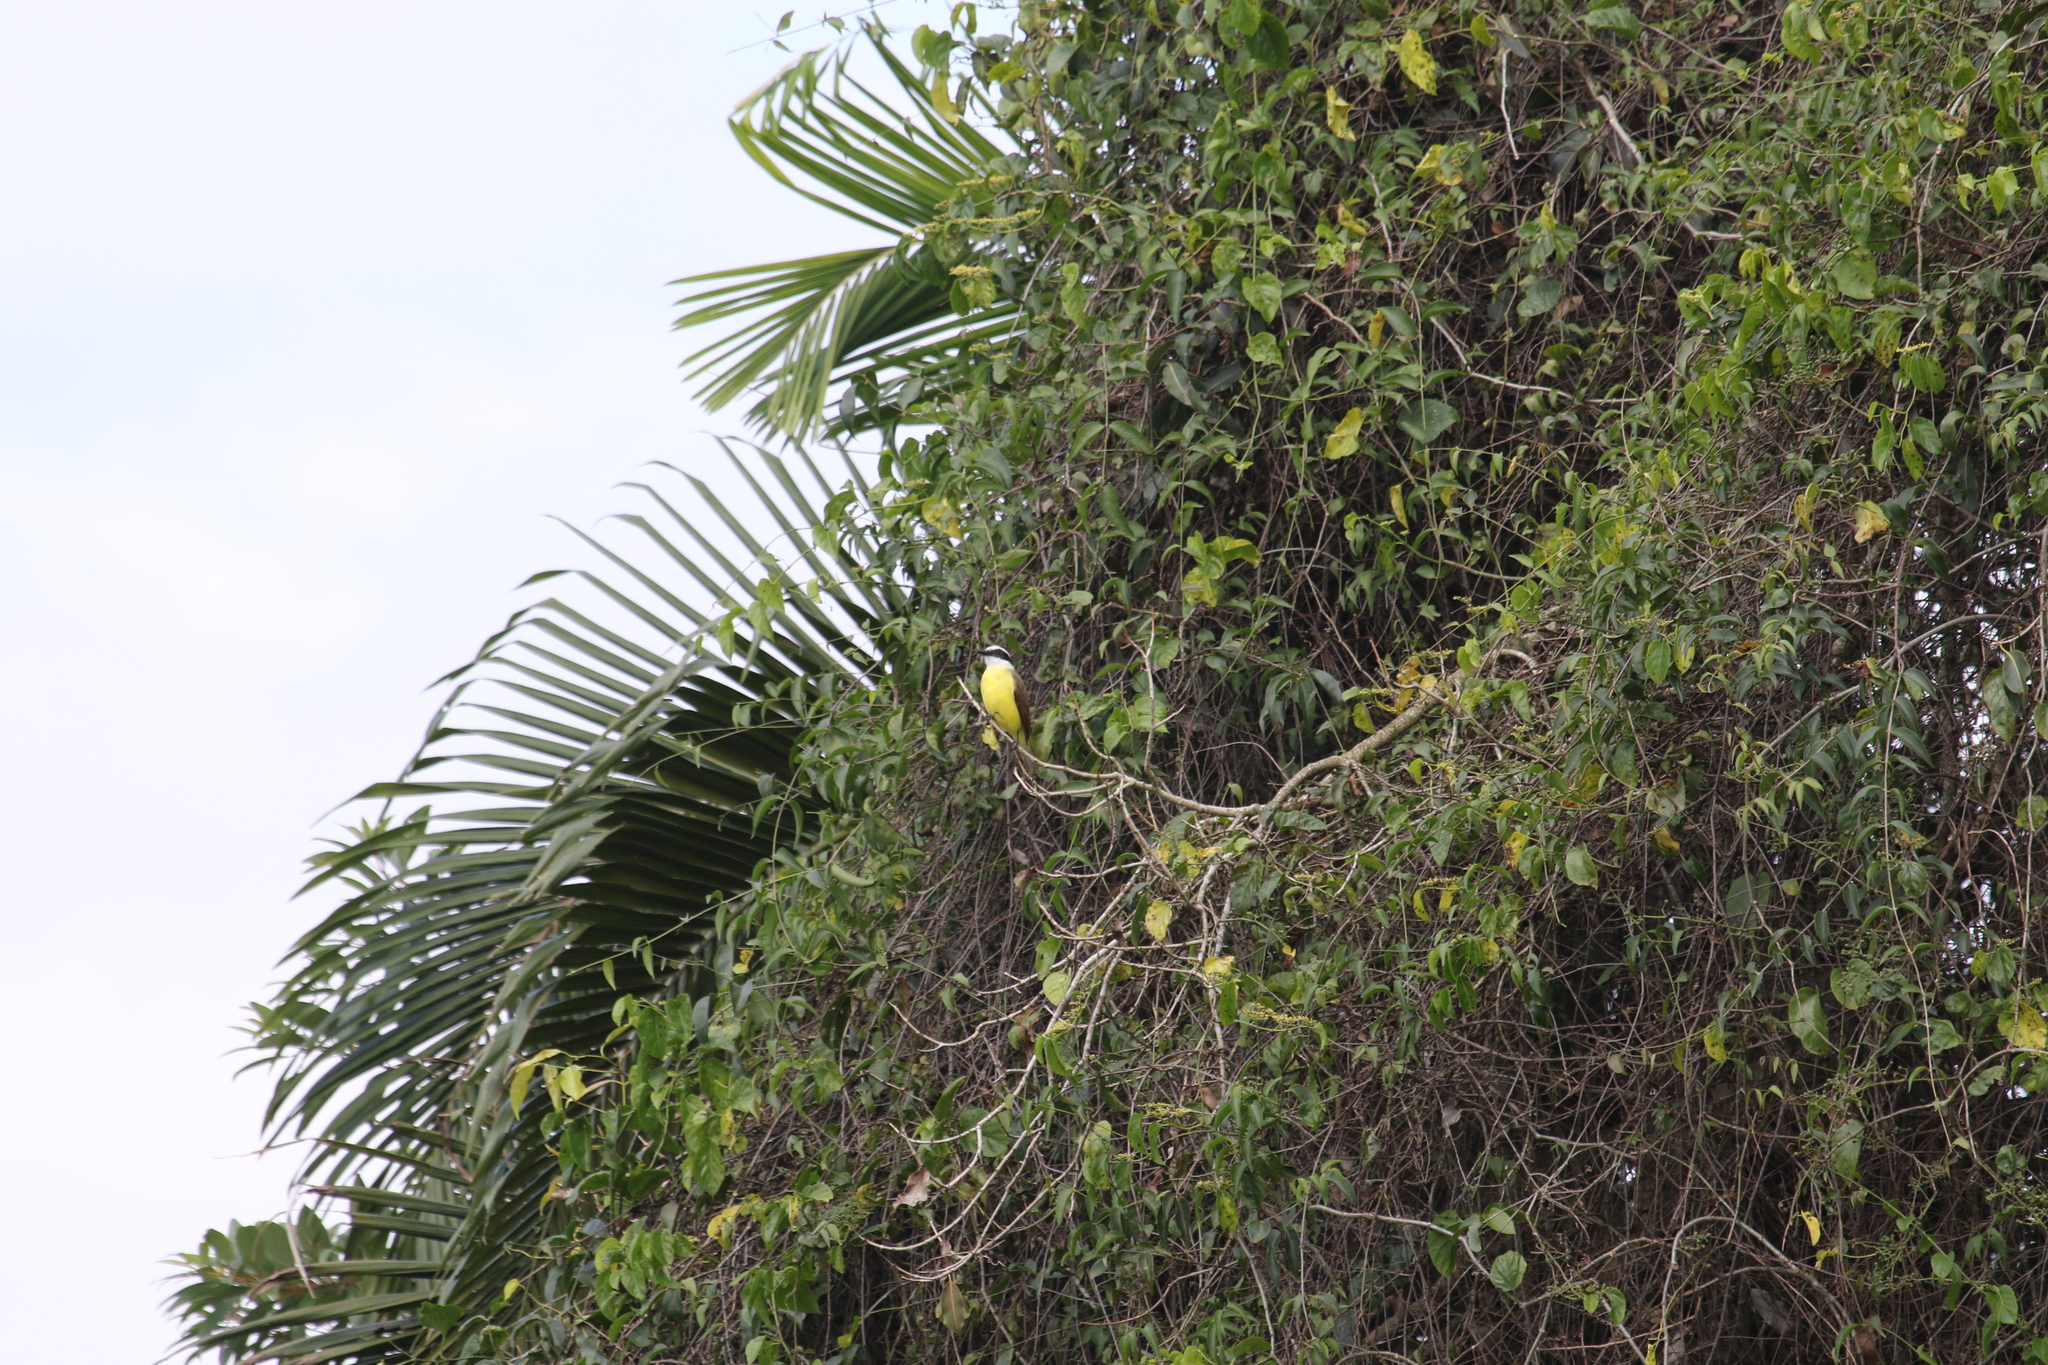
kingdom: Animalia
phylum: Chordata
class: Aves
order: Passeriformes
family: Tyrannidae
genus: Pitangus
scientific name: Pitangus sulphuratus
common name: Great kiskadee
